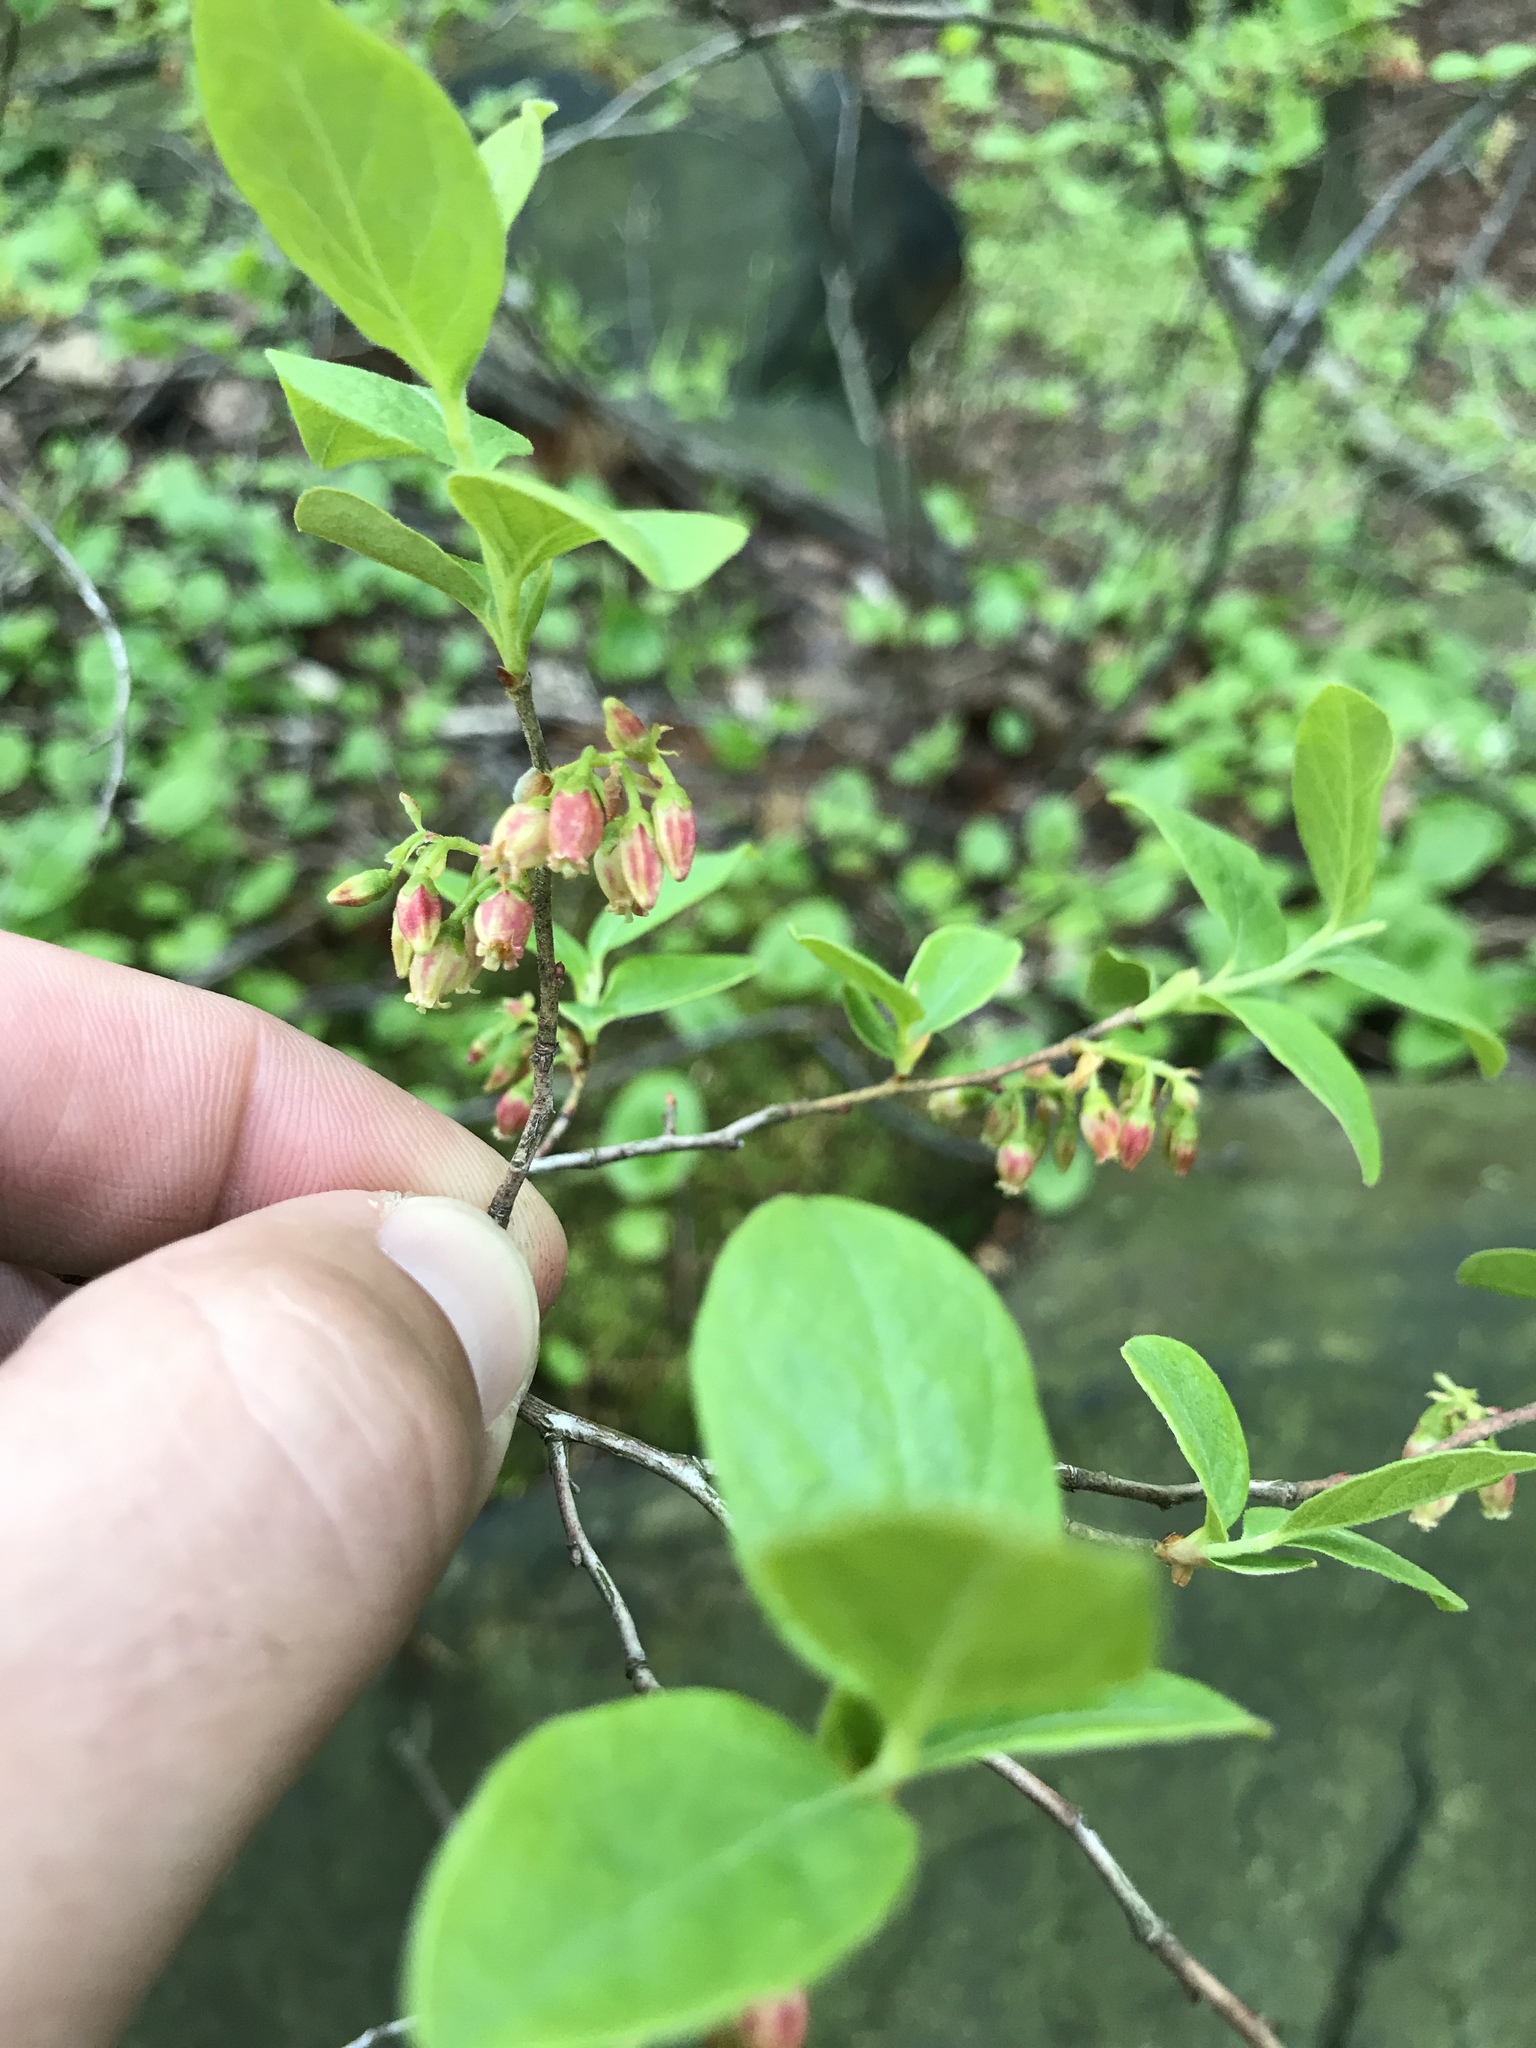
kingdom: Plantae
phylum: Tracheophyta
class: Magnoliopsida
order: Ericales
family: Ericaceae
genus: Gaylussacia
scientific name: Gaylussacia baccata
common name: Black huckleberry
